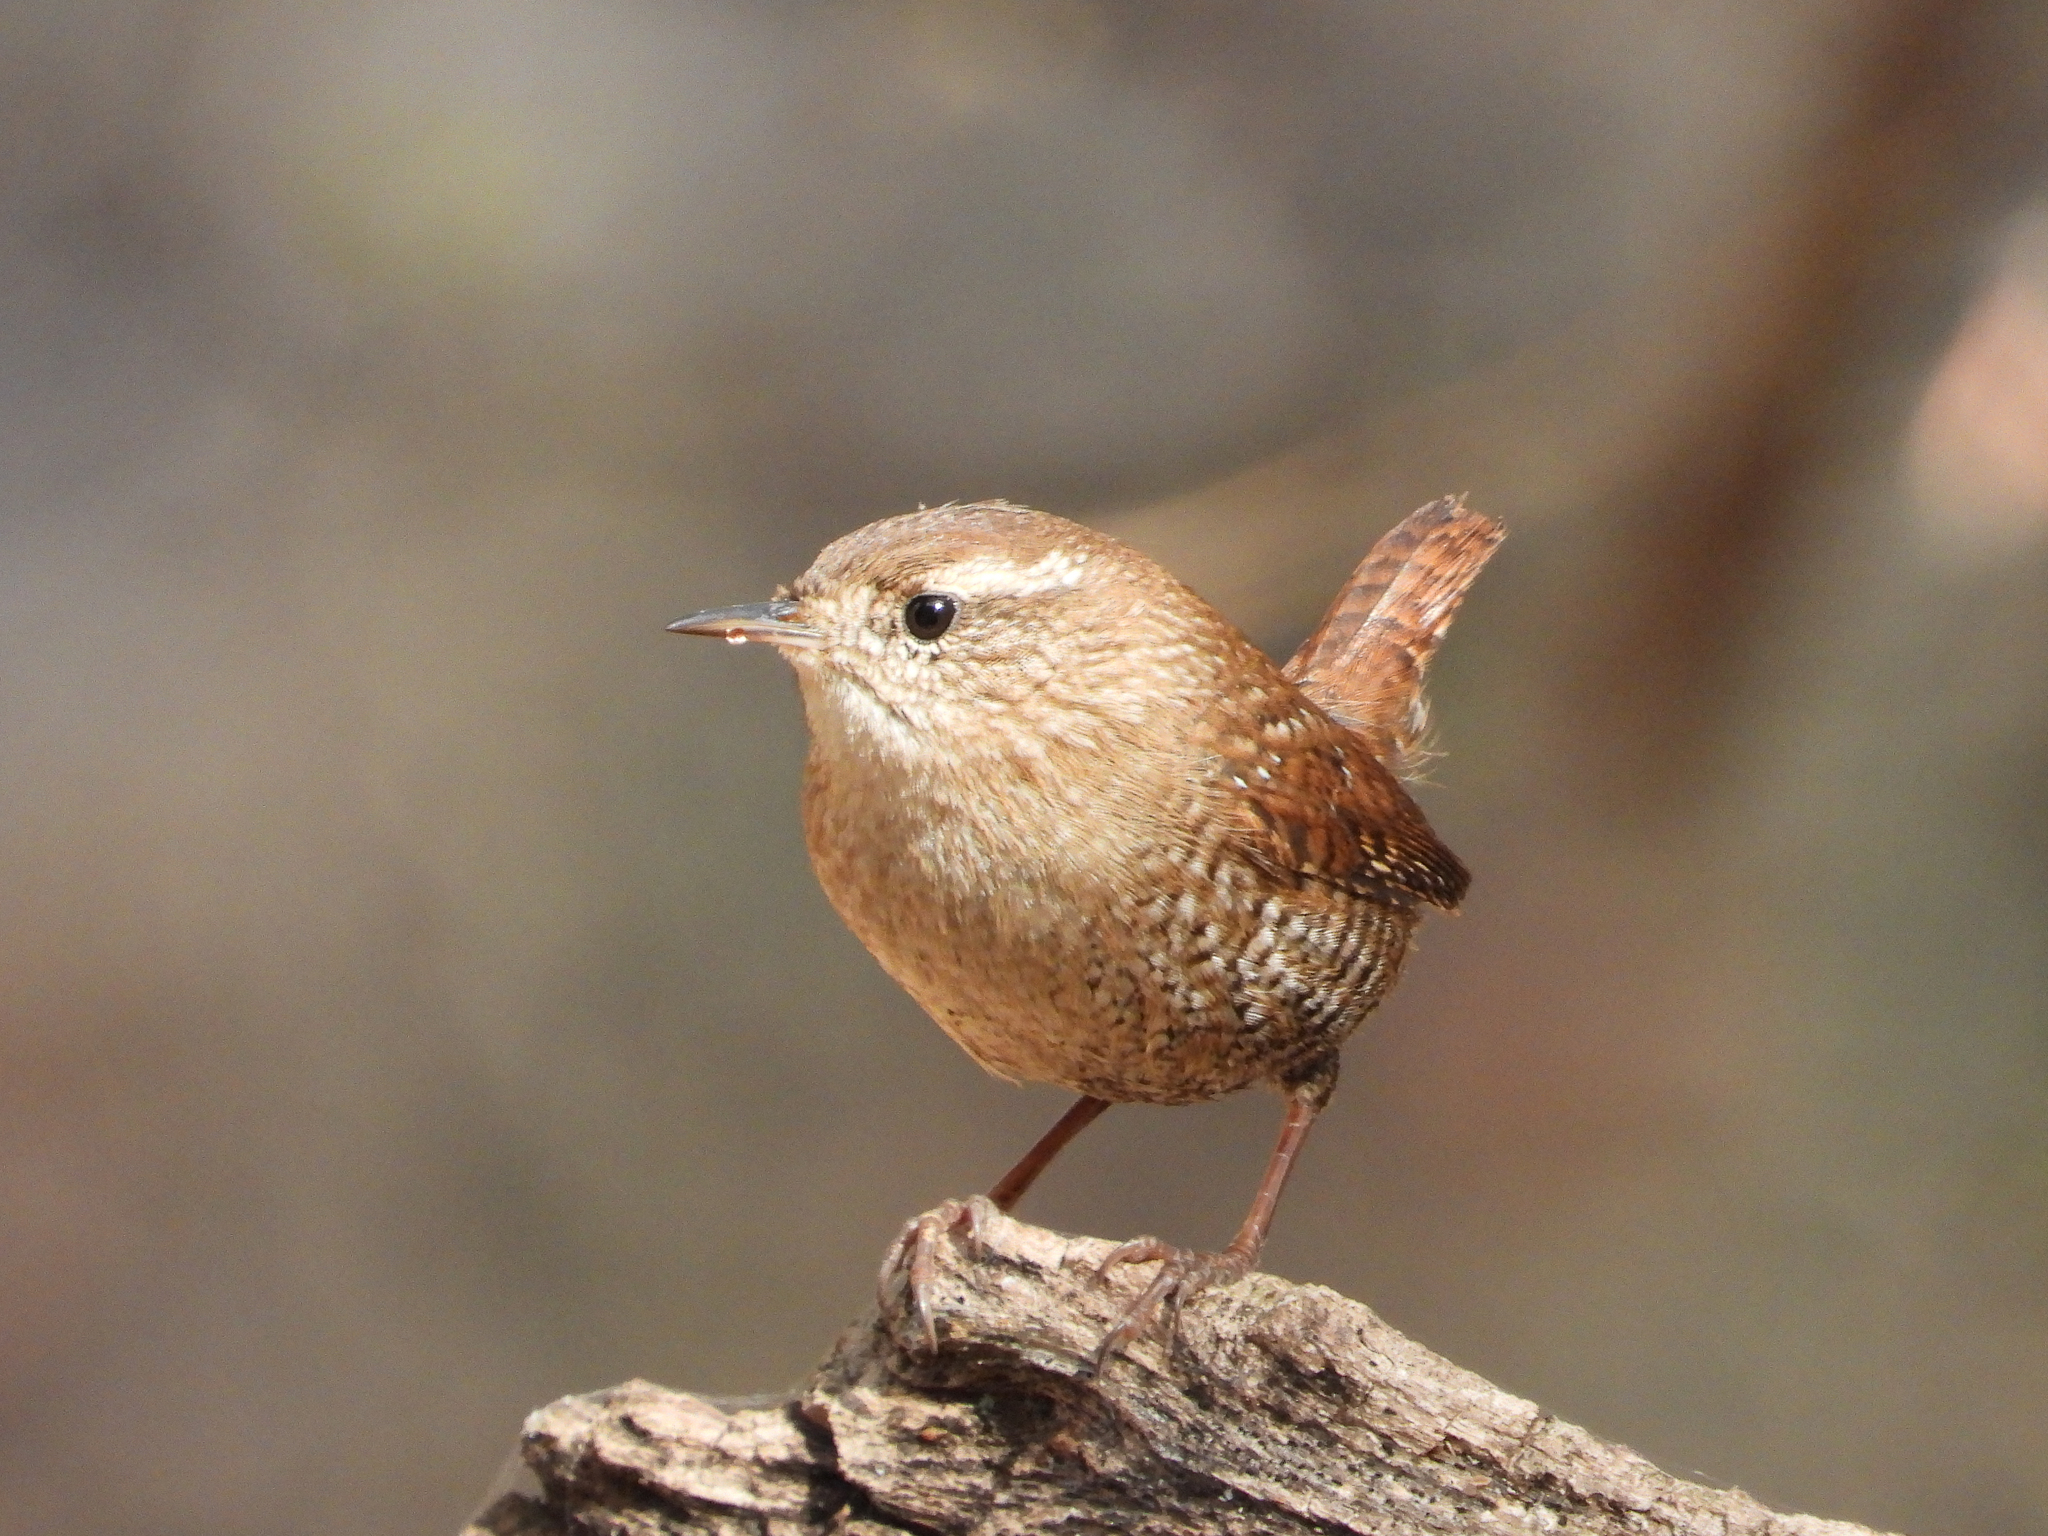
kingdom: Animalia
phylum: Chordata
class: Aves
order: Passeriformes
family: Troglodytidae
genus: Troglodytes
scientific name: Troglodytes hiemalis
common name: Winter wren
